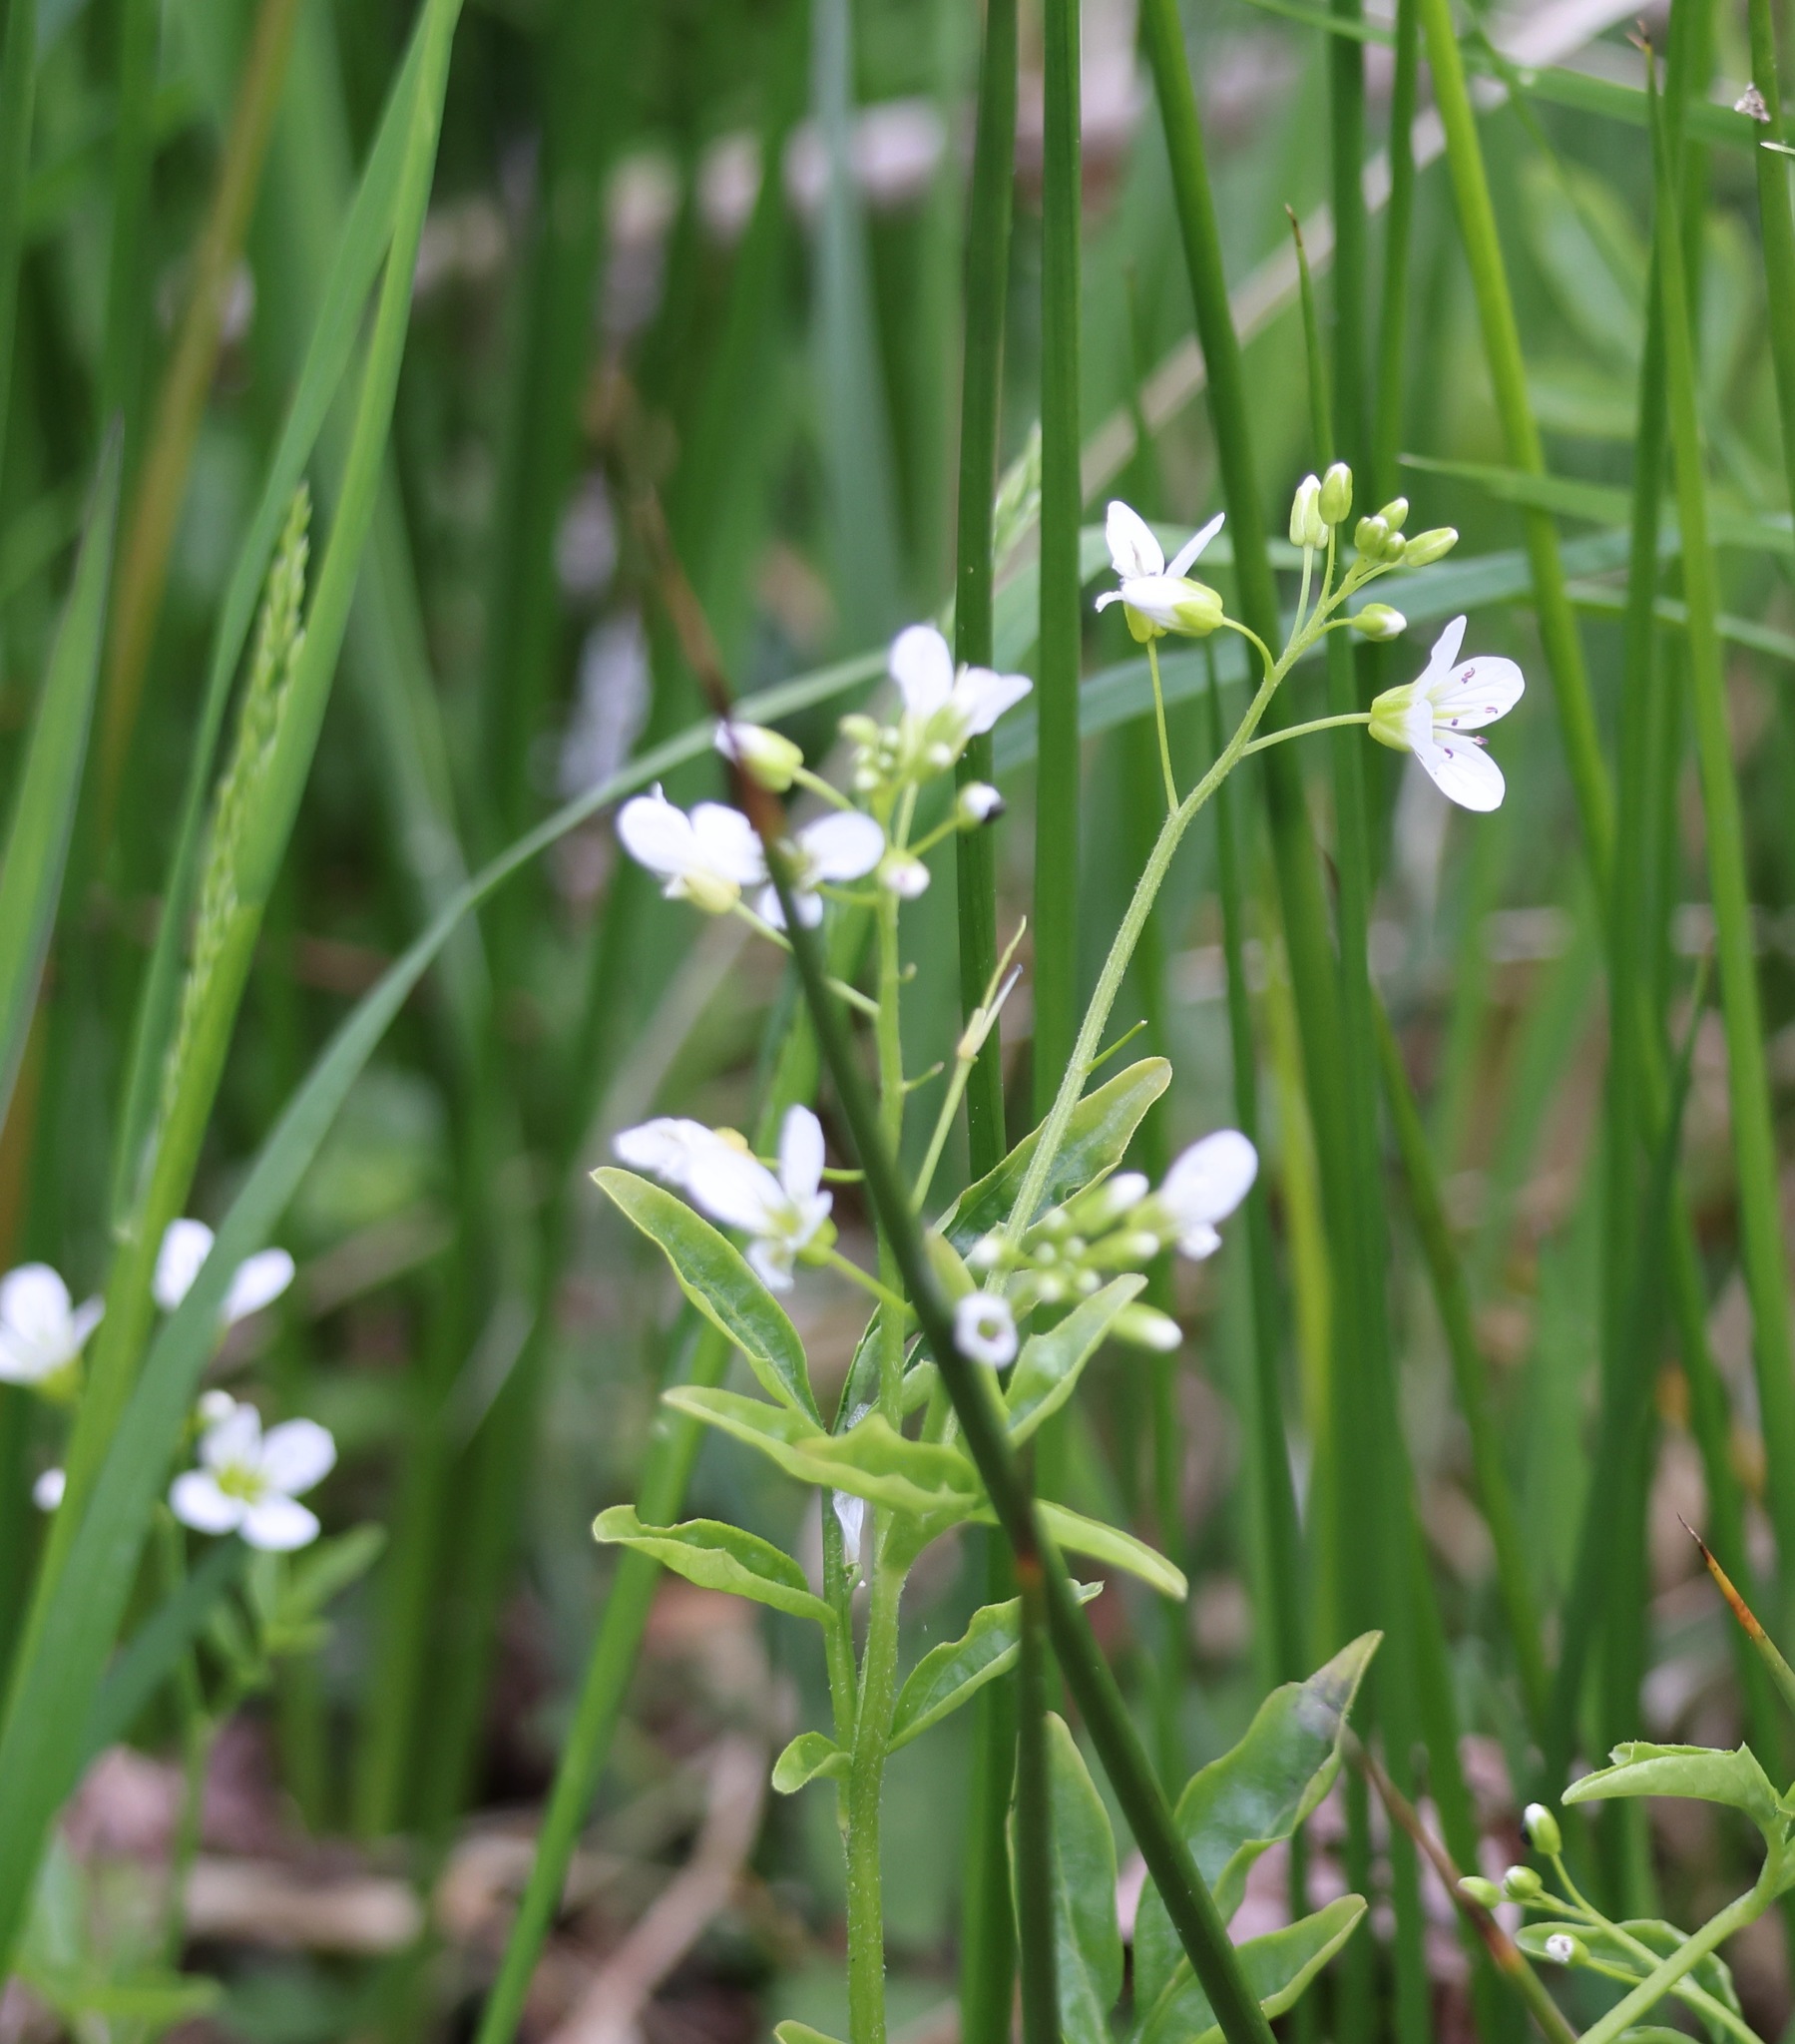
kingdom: Plantae
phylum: Tracheophyta
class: Magnoliopsida
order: Brassicales
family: Brassicaceae
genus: Cardamine
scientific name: Cardamine amara
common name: Large bitter-cress
